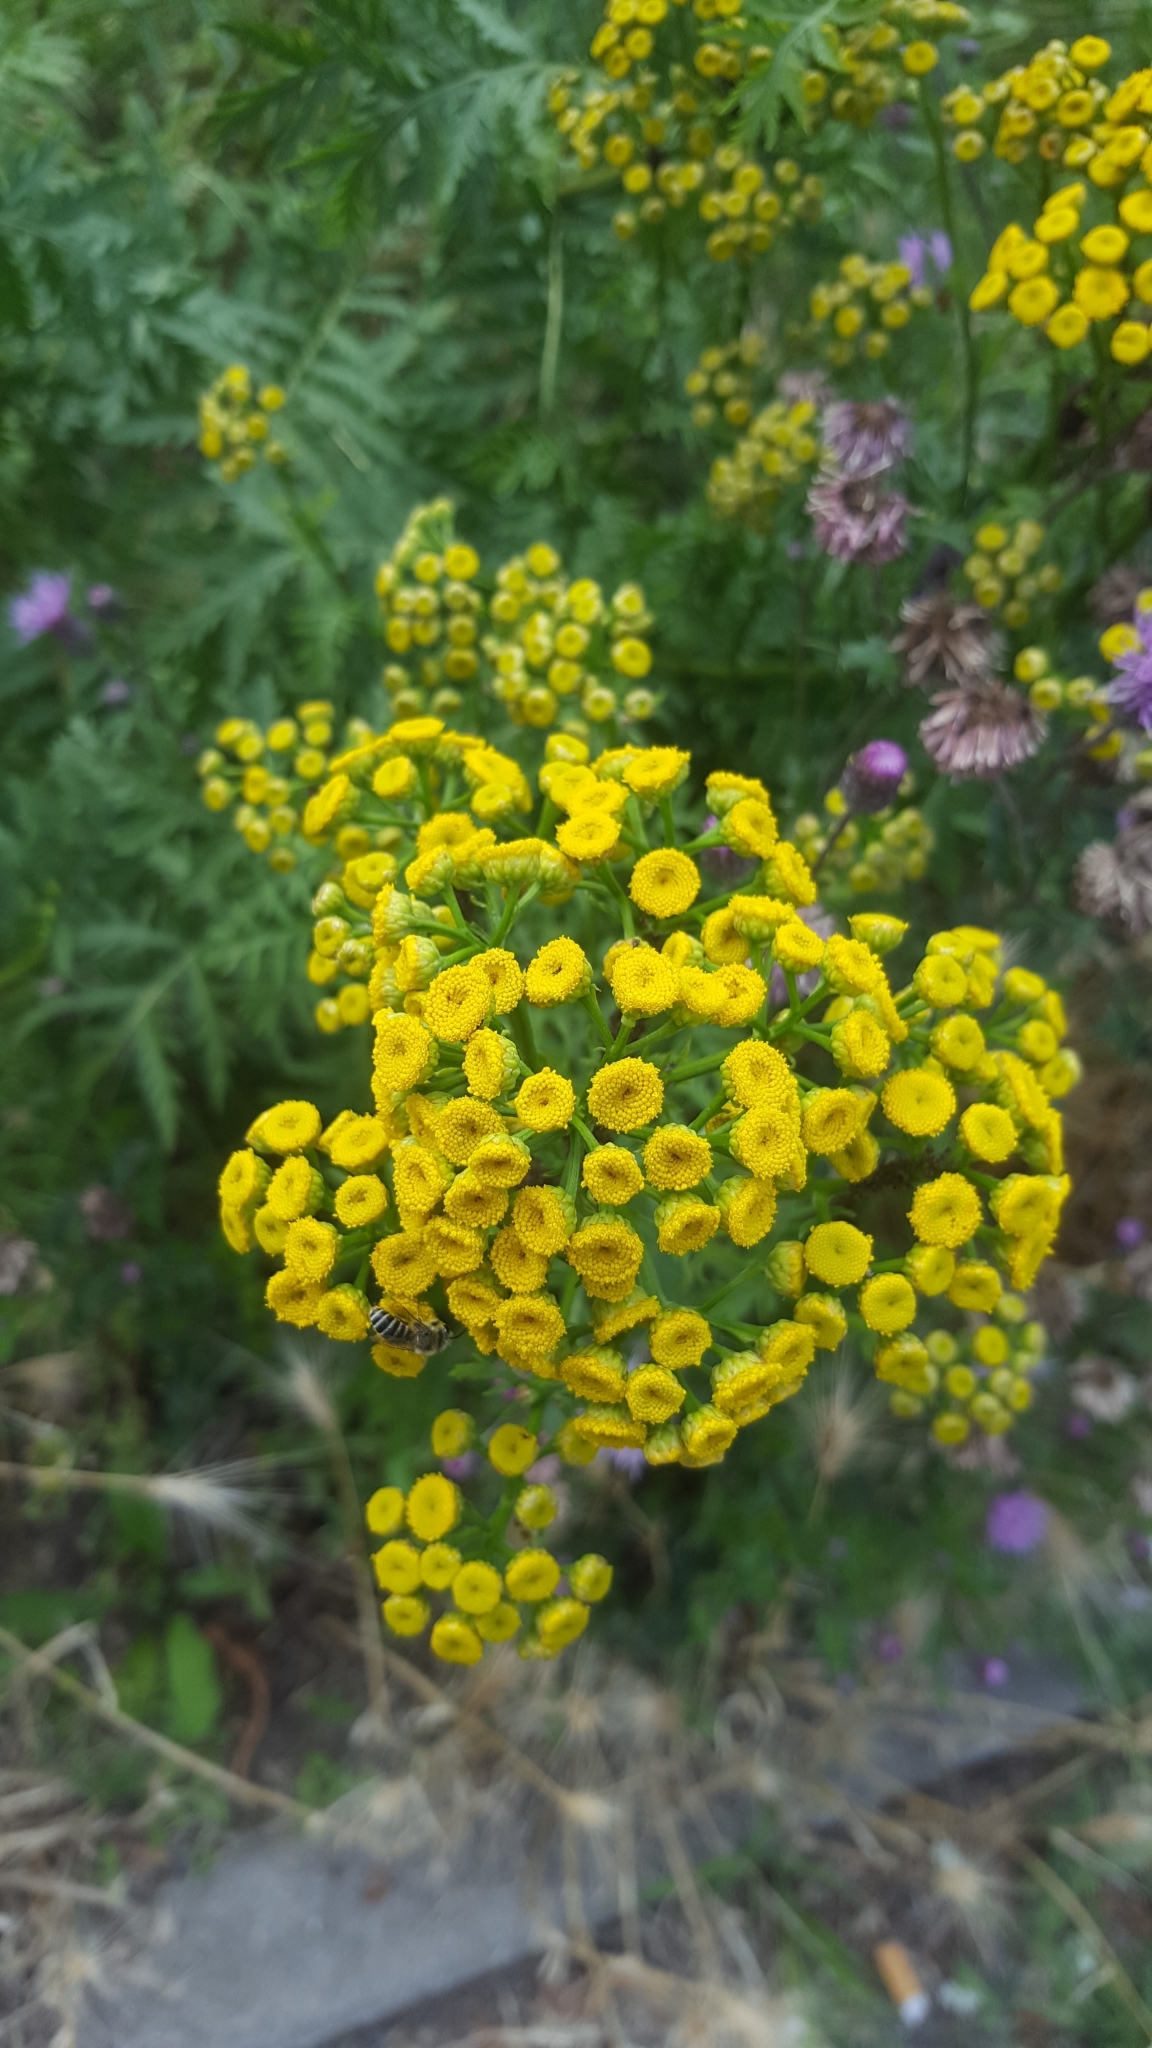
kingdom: Plantae
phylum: Tracheophyta
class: Magnoliopsida
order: Asterales
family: Asteraceae
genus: Tanacetum
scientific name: Tanacetum vulgare
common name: Common tansy
